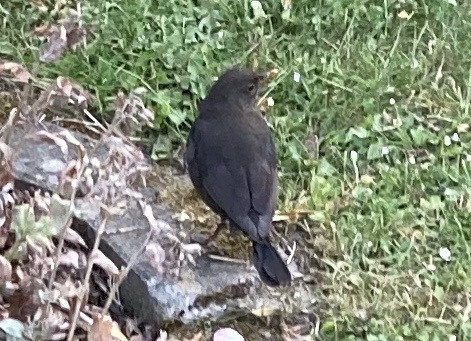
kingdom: Animalia
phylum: Chordata
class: Aves
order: Passeriformes
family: Turdidae
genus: Turdus
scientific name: Turdus merula
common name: Common blackbird
